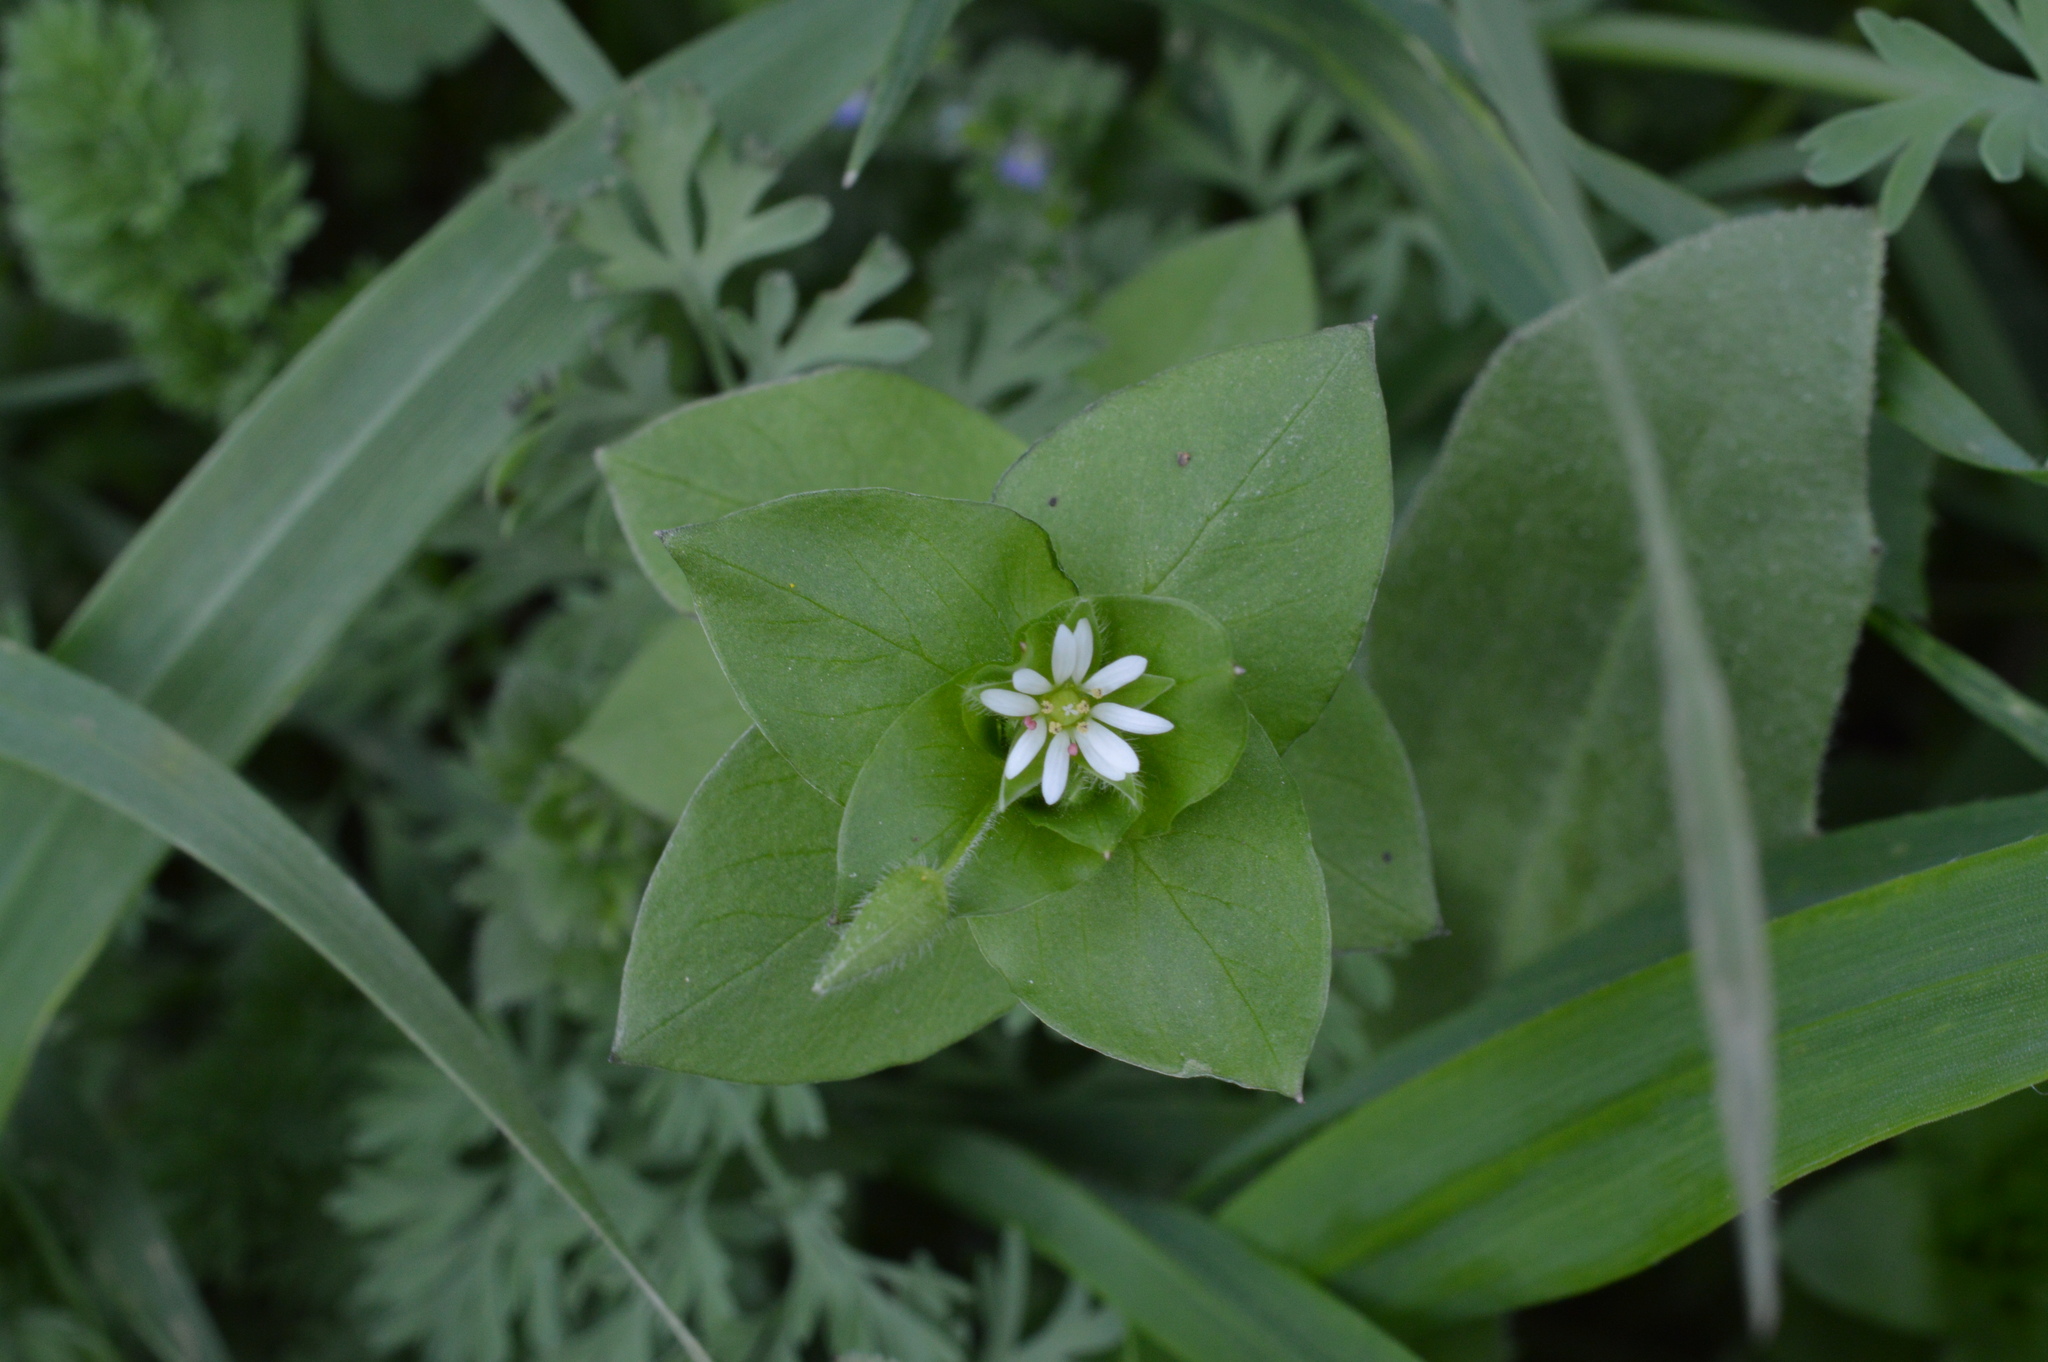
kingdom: Plantae
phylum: Tracheophyta
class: Magnoliopsida
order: Caryophyllales
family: Caryophyllaceae
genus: Stellaria
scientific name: Stellaria media
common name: Common chickweed
